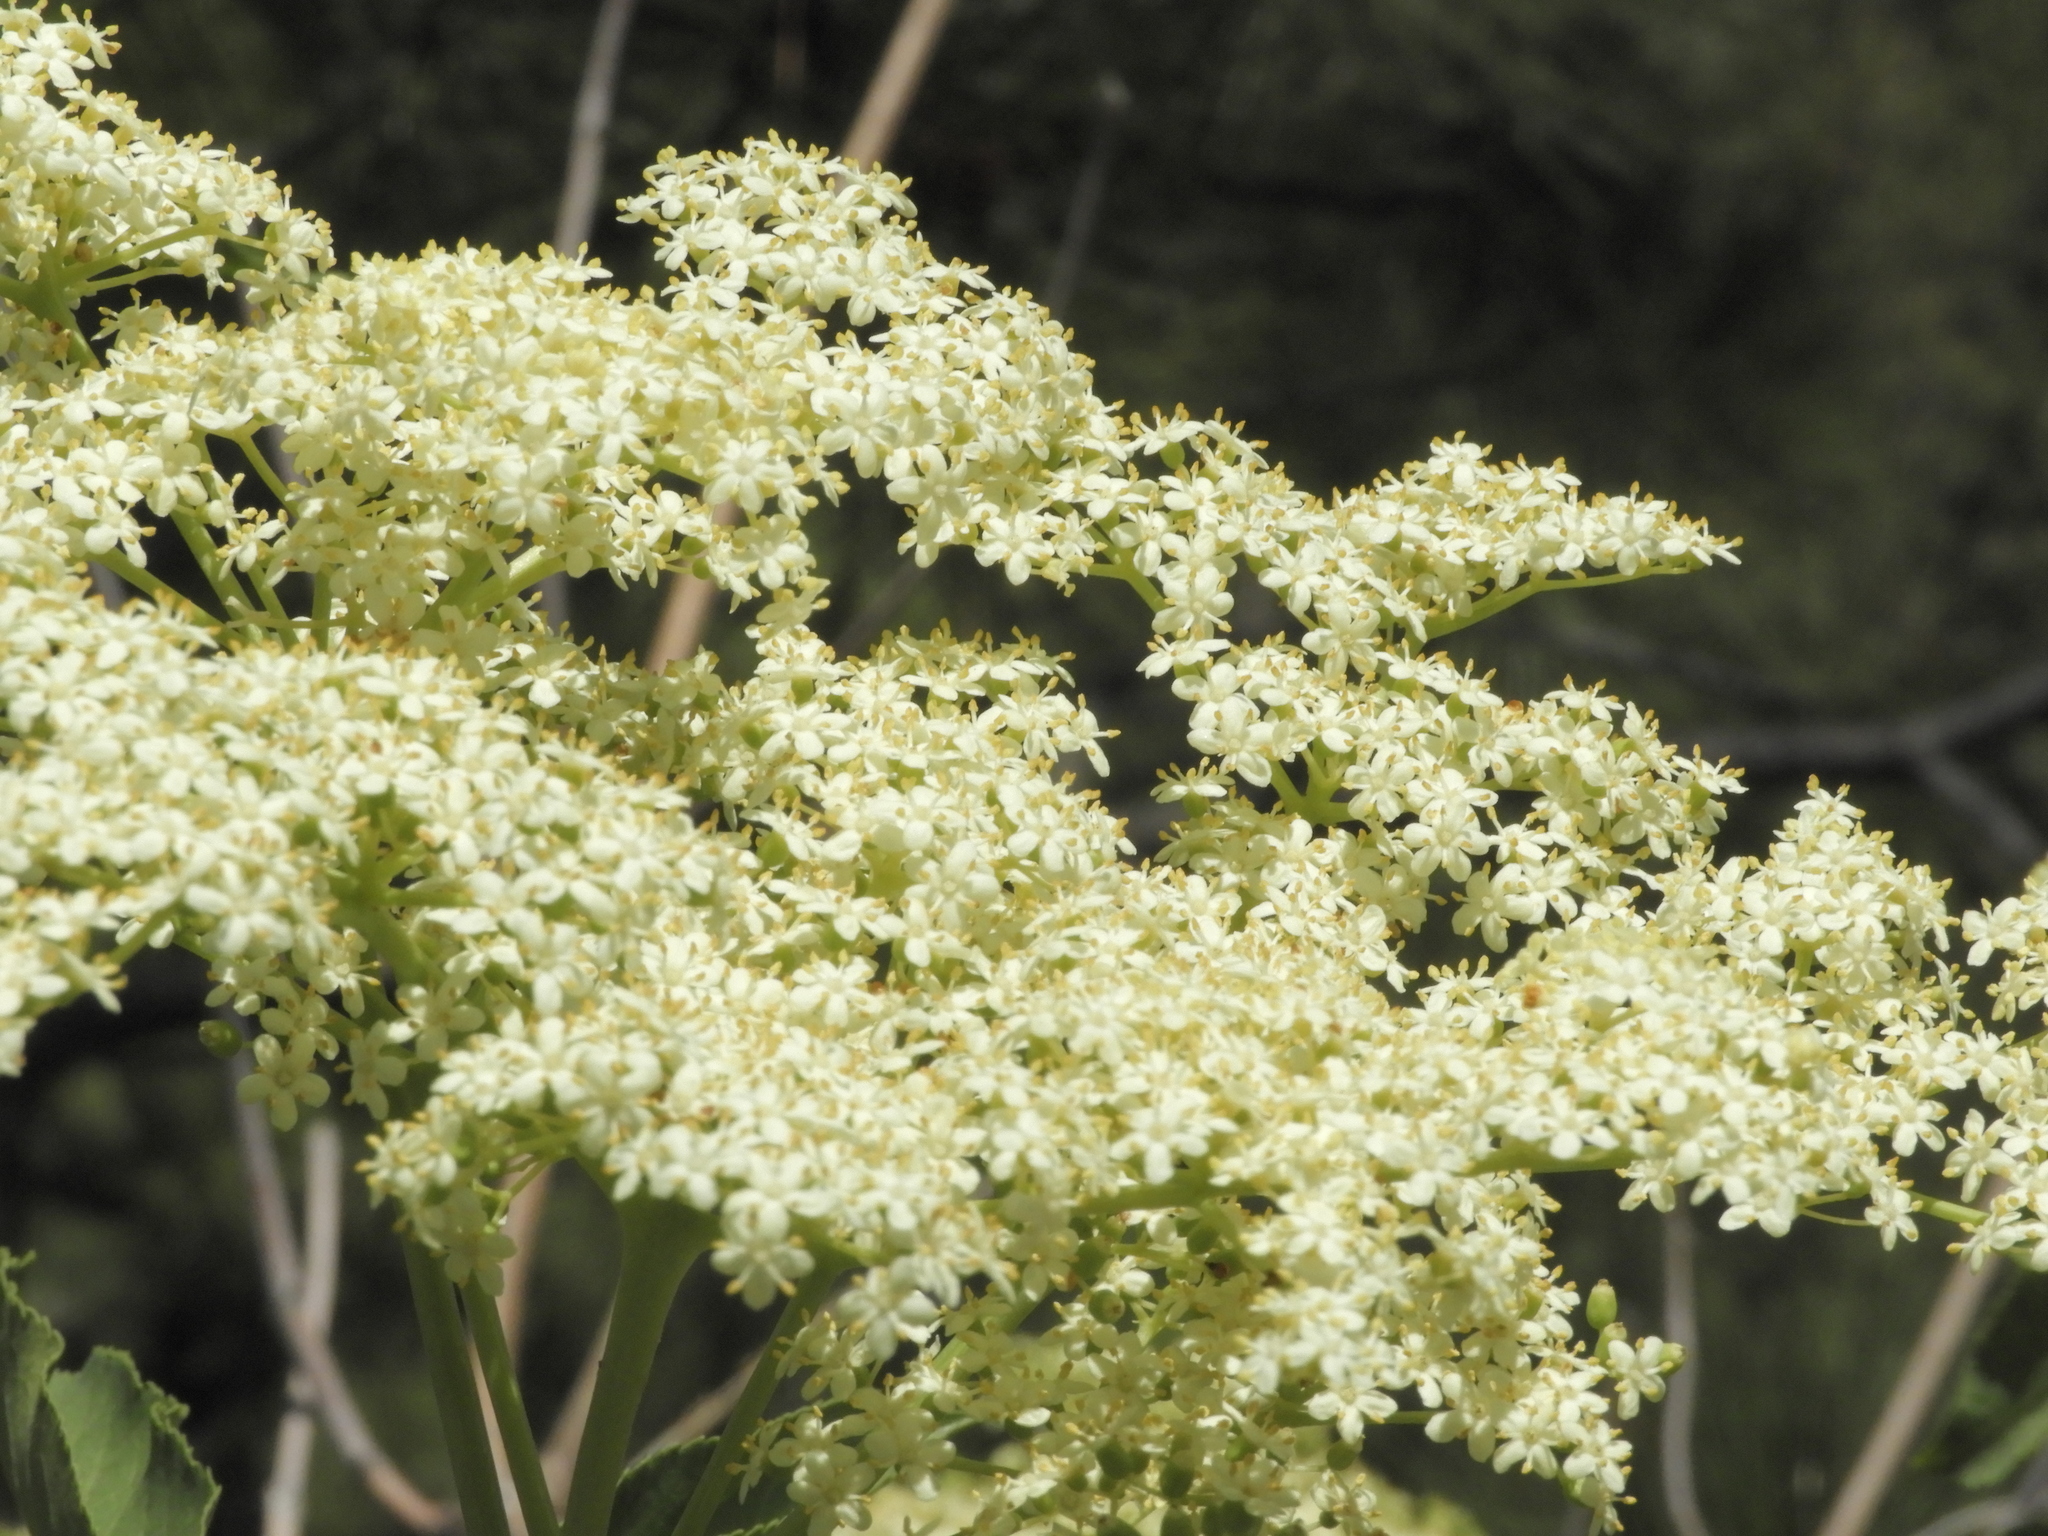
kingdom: Plantae
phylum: Tracheophyta
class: Magnoliopsida
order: Dipsacales
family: Viburnaceae
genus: Sambucus
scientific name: Sambucus cerulea
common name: Blue elder
